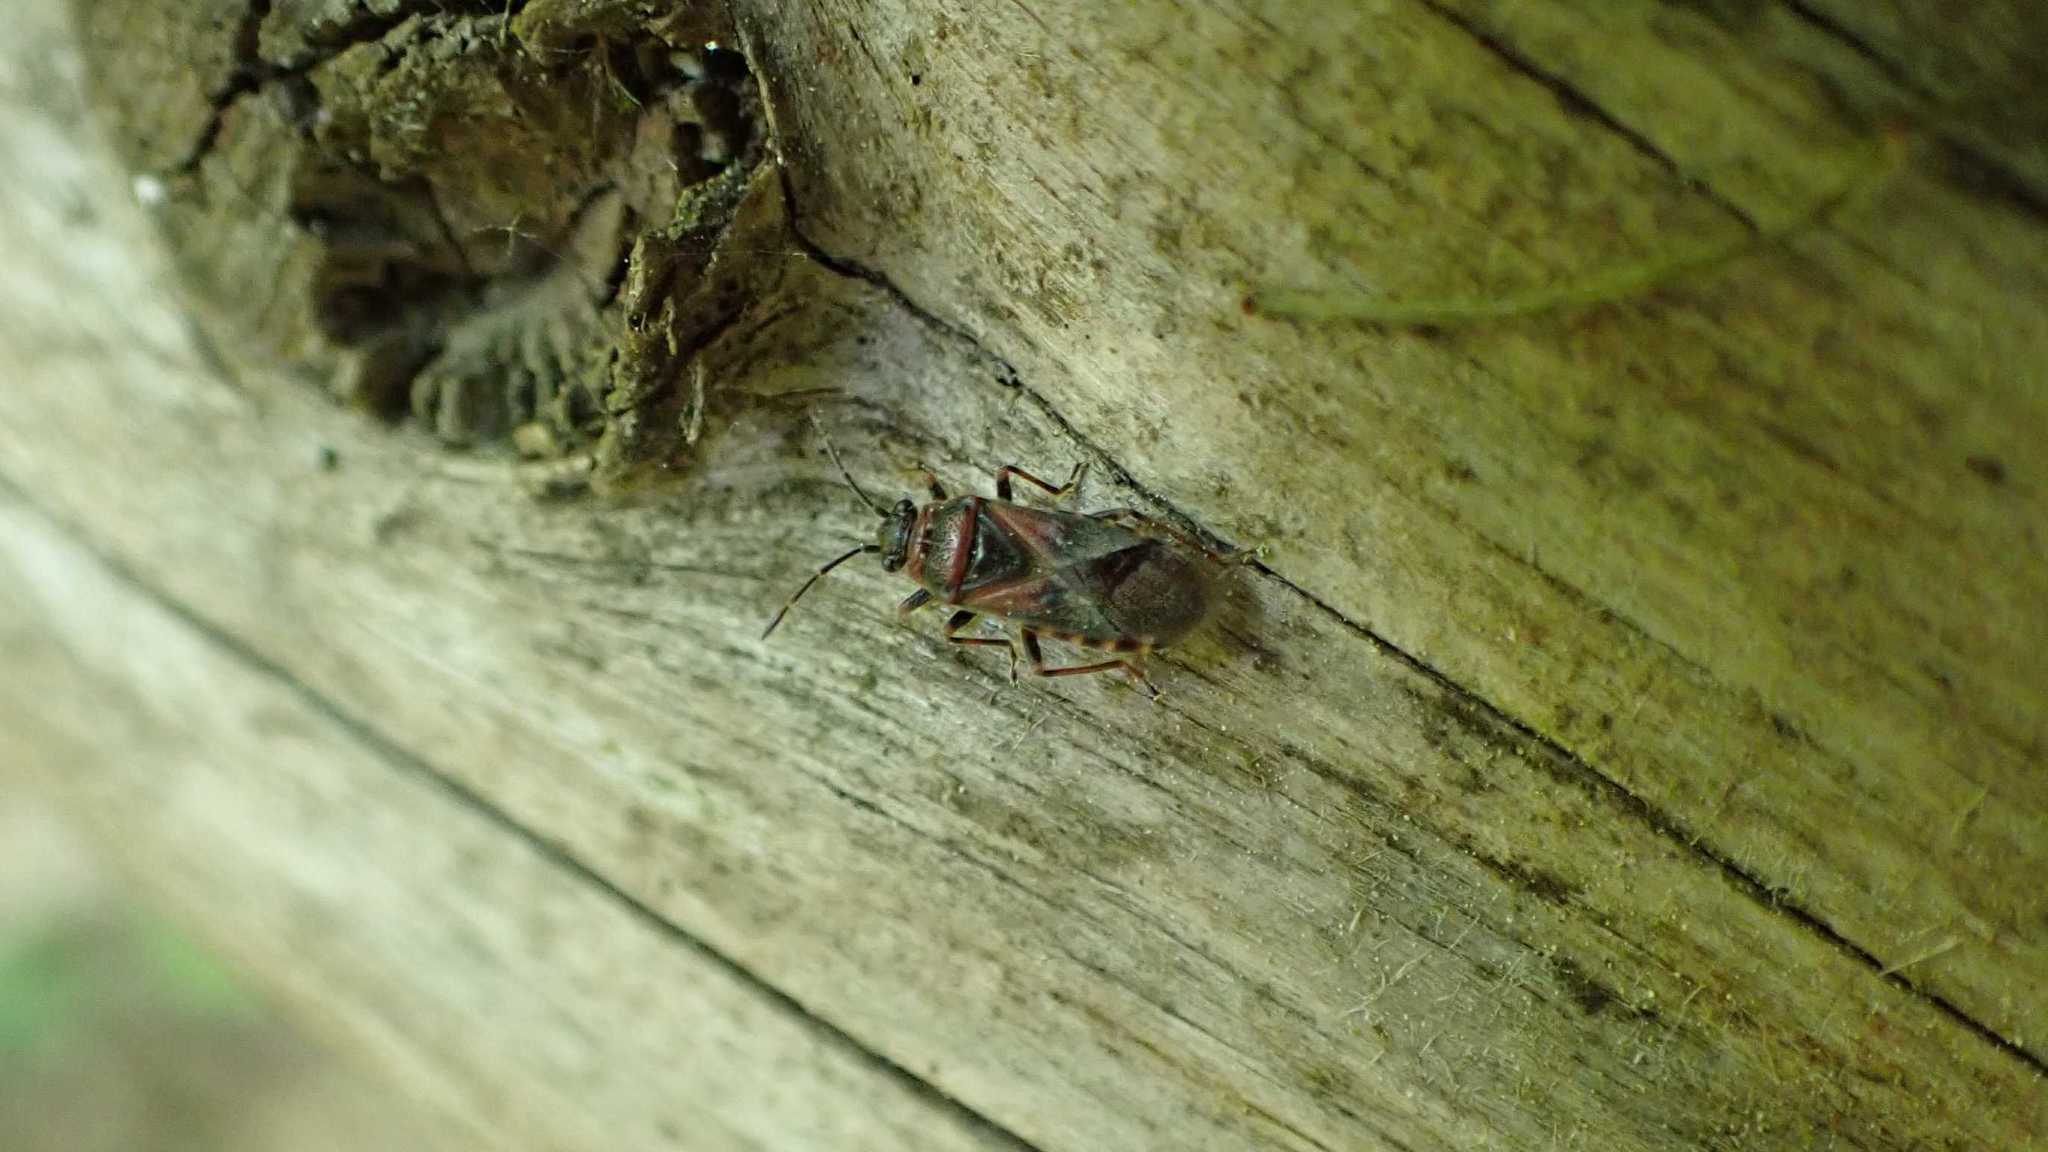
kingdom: Animalia
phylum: Arthropoda
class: Insecta
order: Hemiptera
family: Lygaeidae
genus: Arocatus
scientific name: Arocatus melanocephalus
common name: Lygaeid bug
